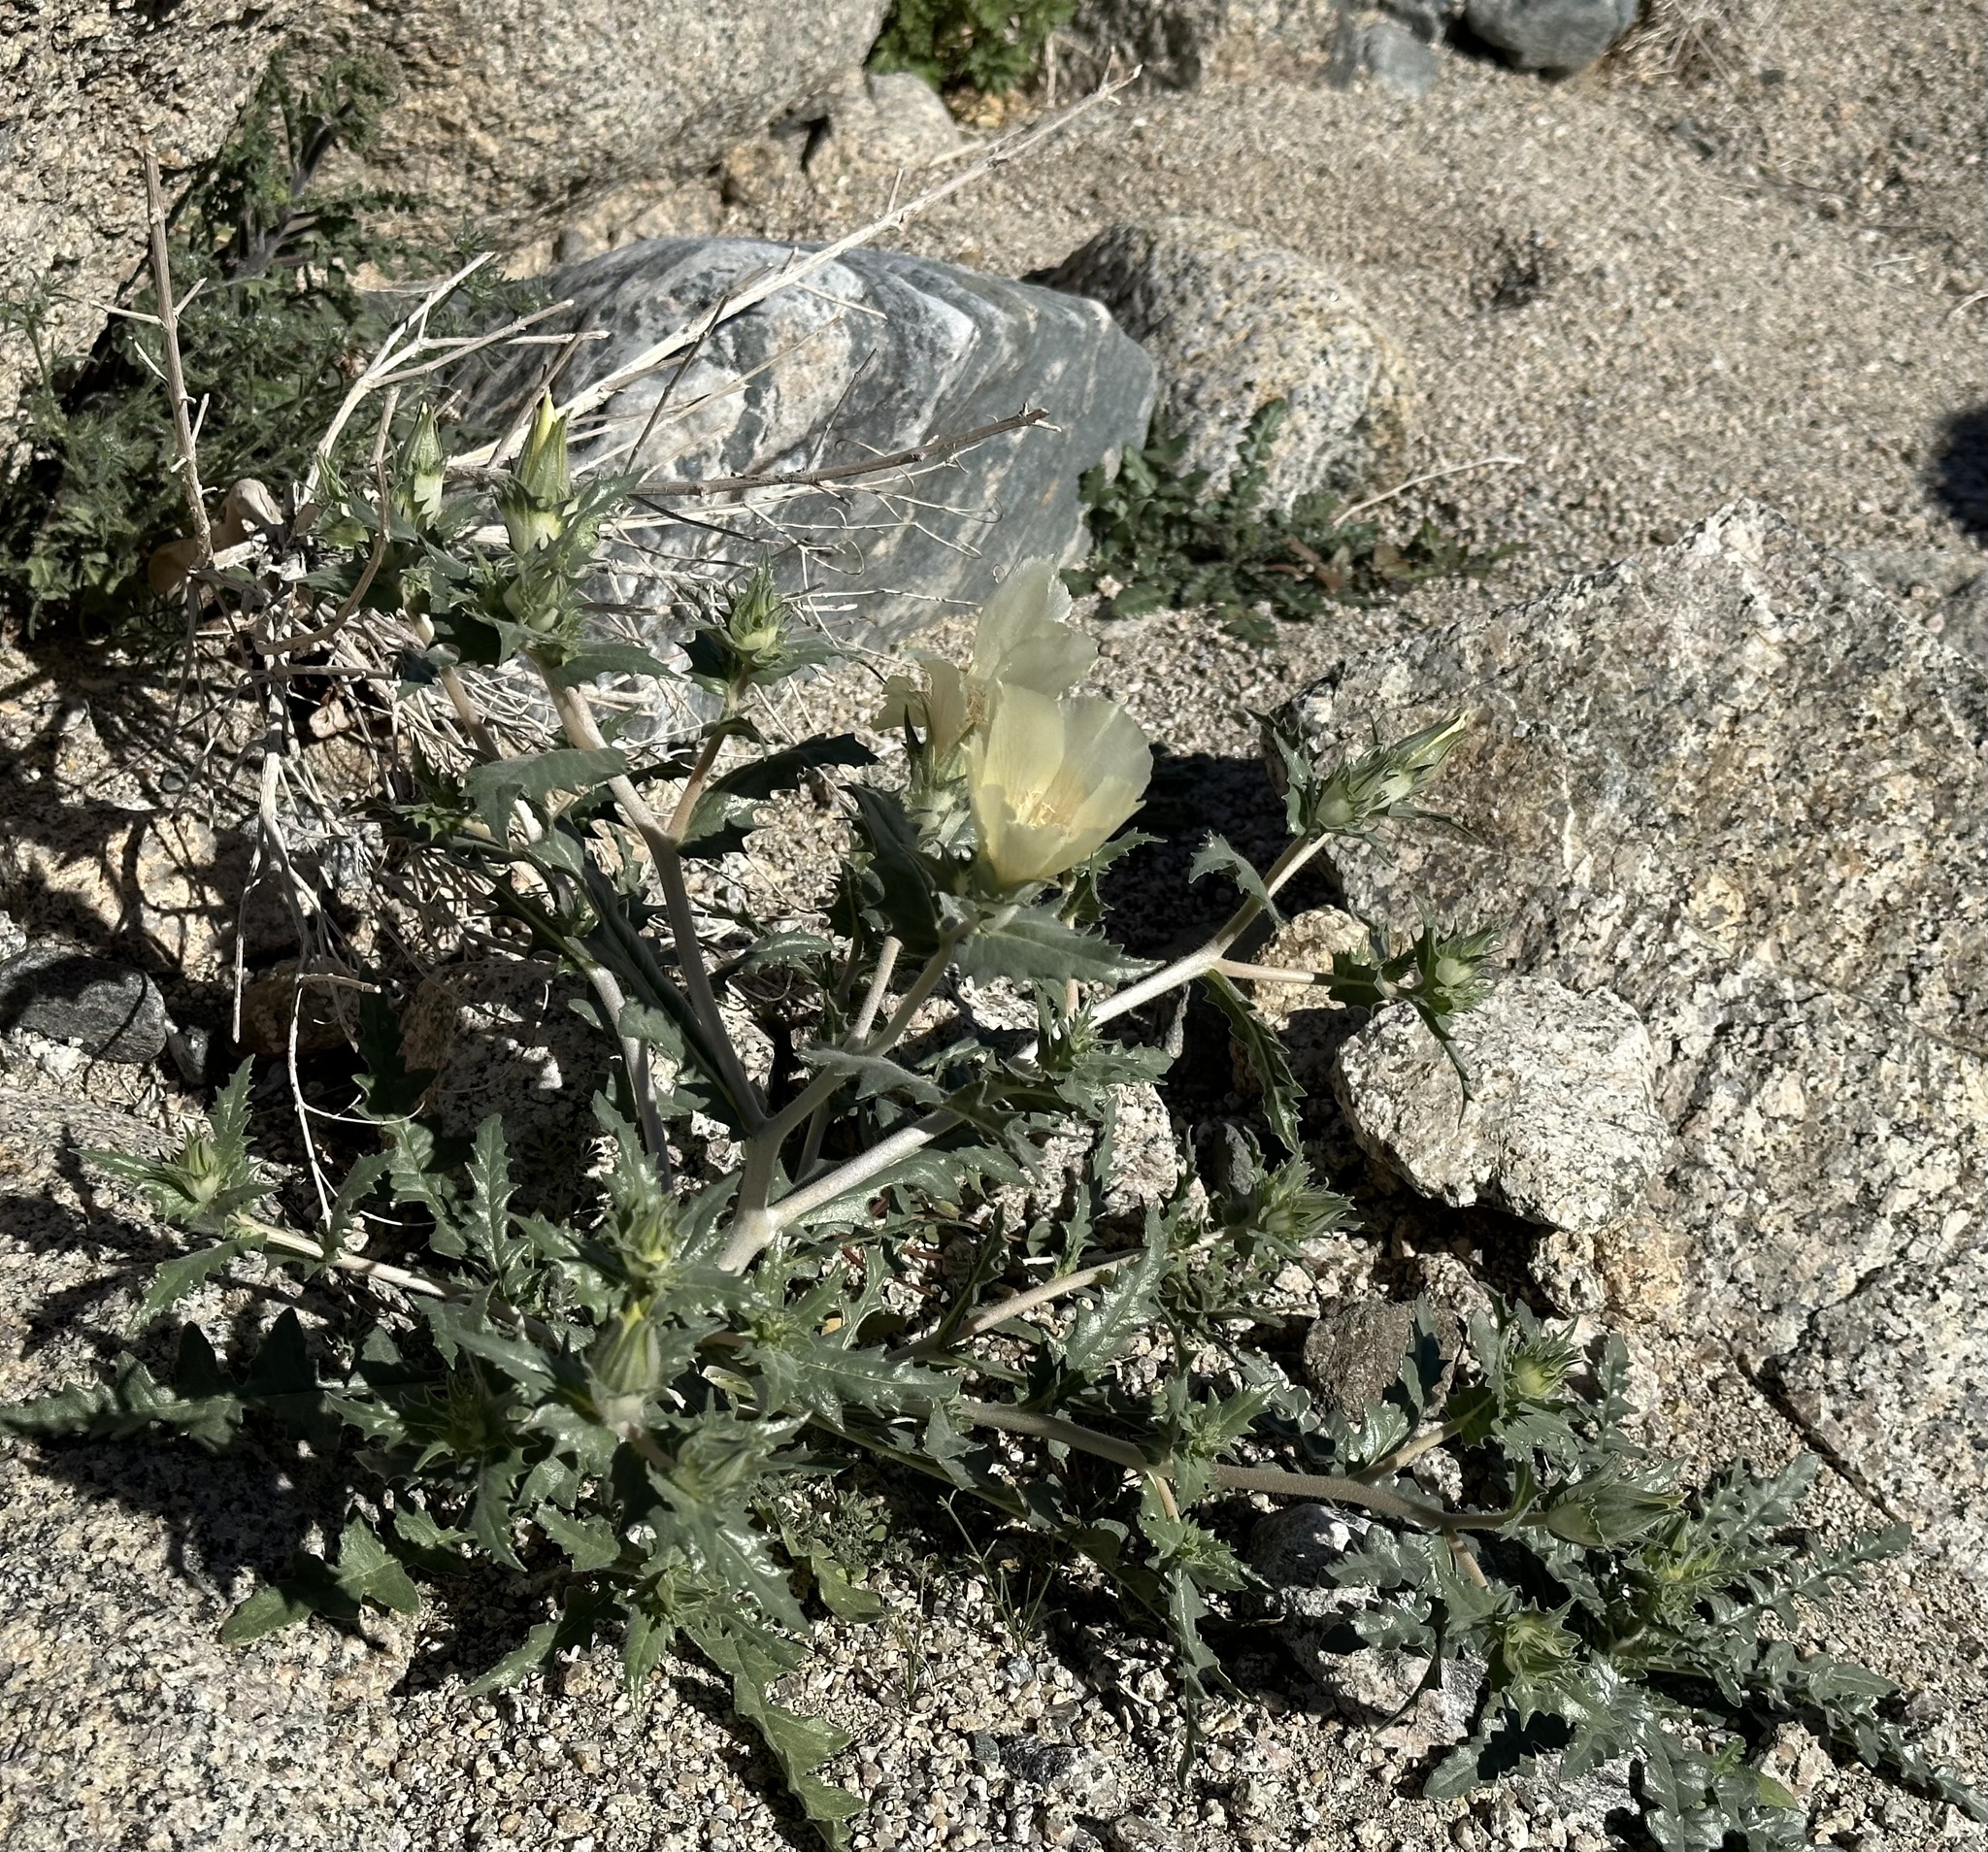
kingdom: Plantae
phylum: Tracheophyta
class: Magnoliopsida
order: Cornales
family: Loasaceae
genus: Mentzelia
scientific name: Mentzelia involucrata
